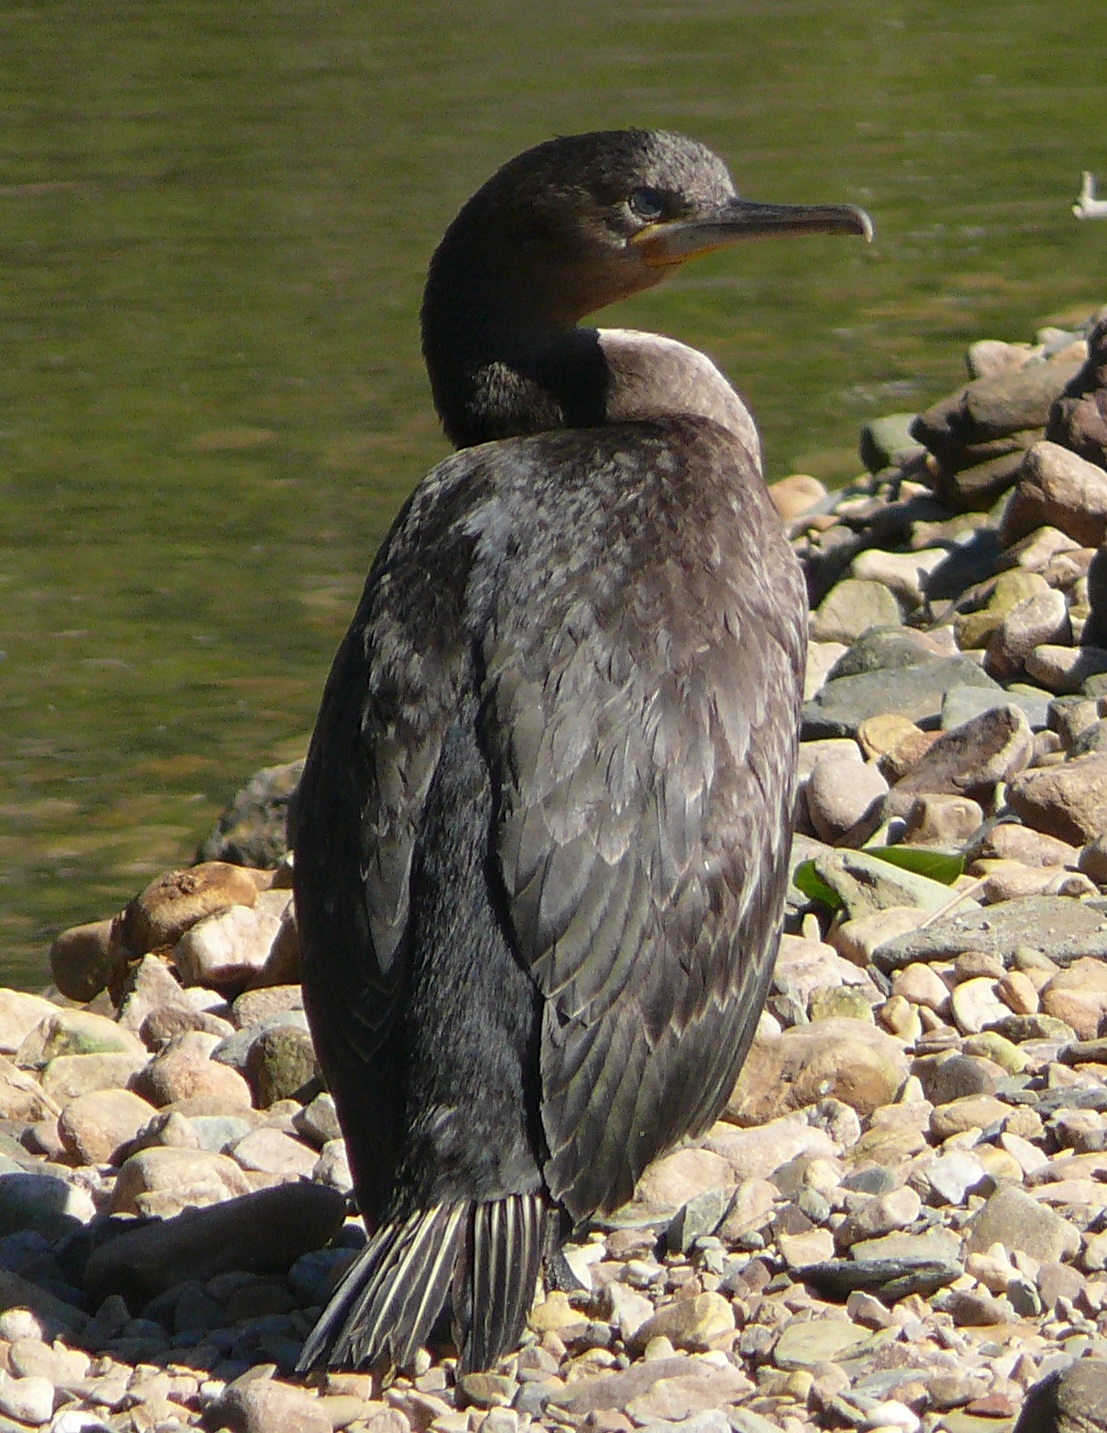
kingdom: Animalia
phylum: Chordata
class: Aves
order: Suliformes
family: Phalacrocoracidae
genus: Phalacrocorax
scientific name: Phalacrocorax capensis
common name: Cape cormorant
